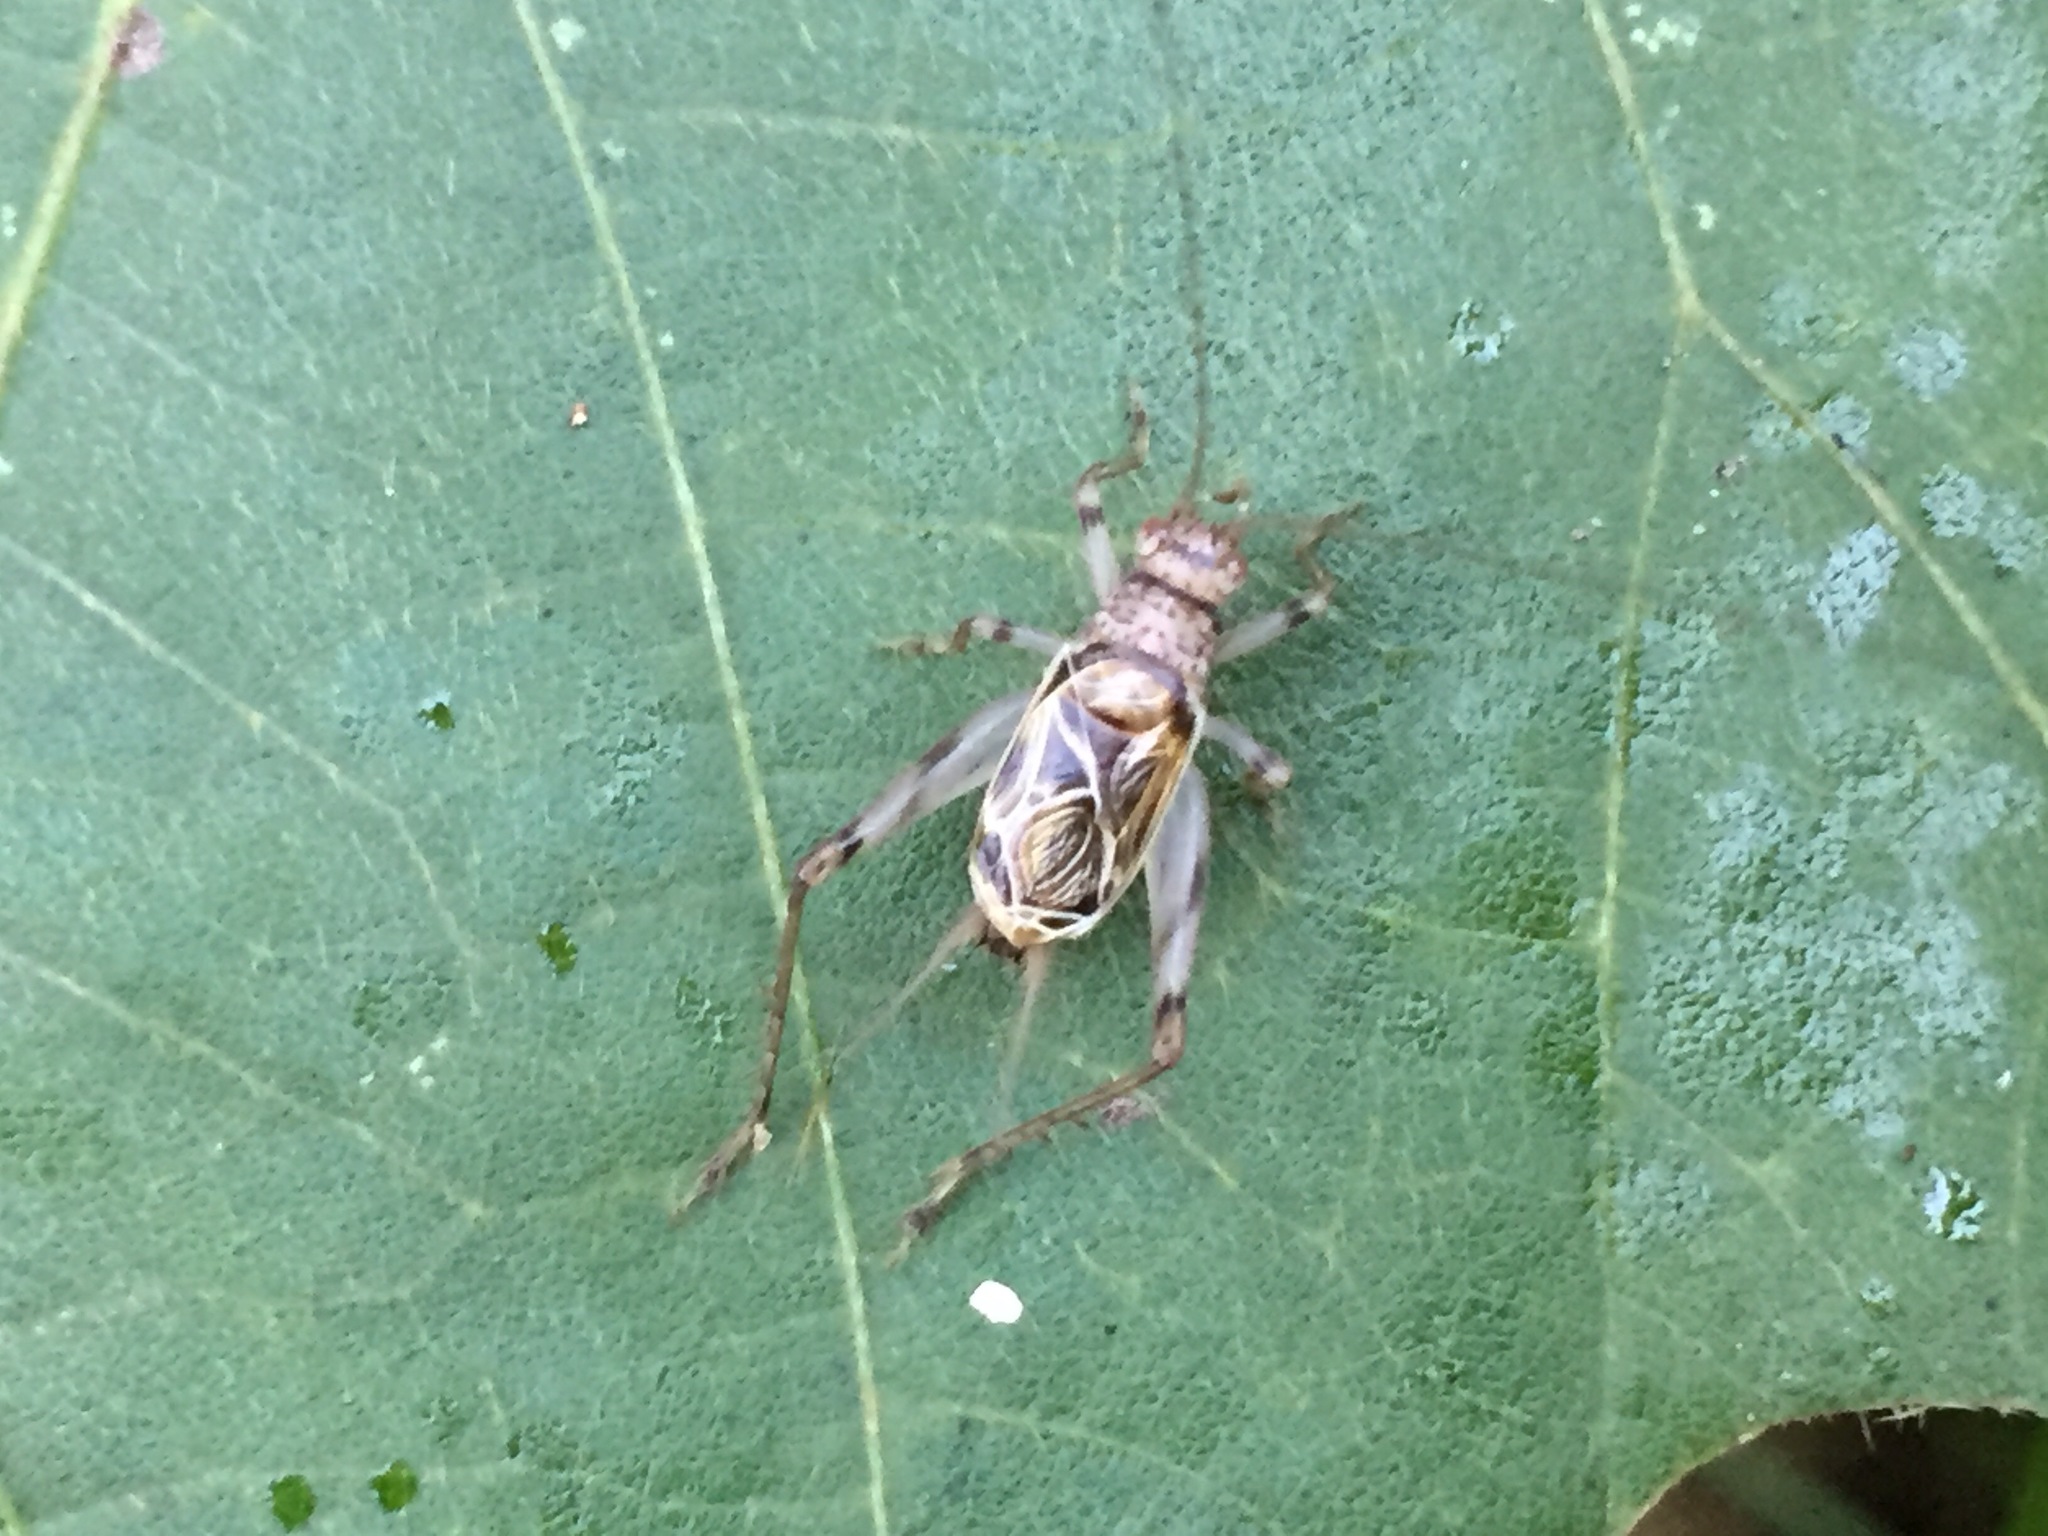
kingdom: Animalia
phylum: Arthropoda
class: Insecta
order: Orthoptera
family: Trigonidiidae
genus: Svistella
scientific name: Svistella bifasciata
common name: Gold bell
